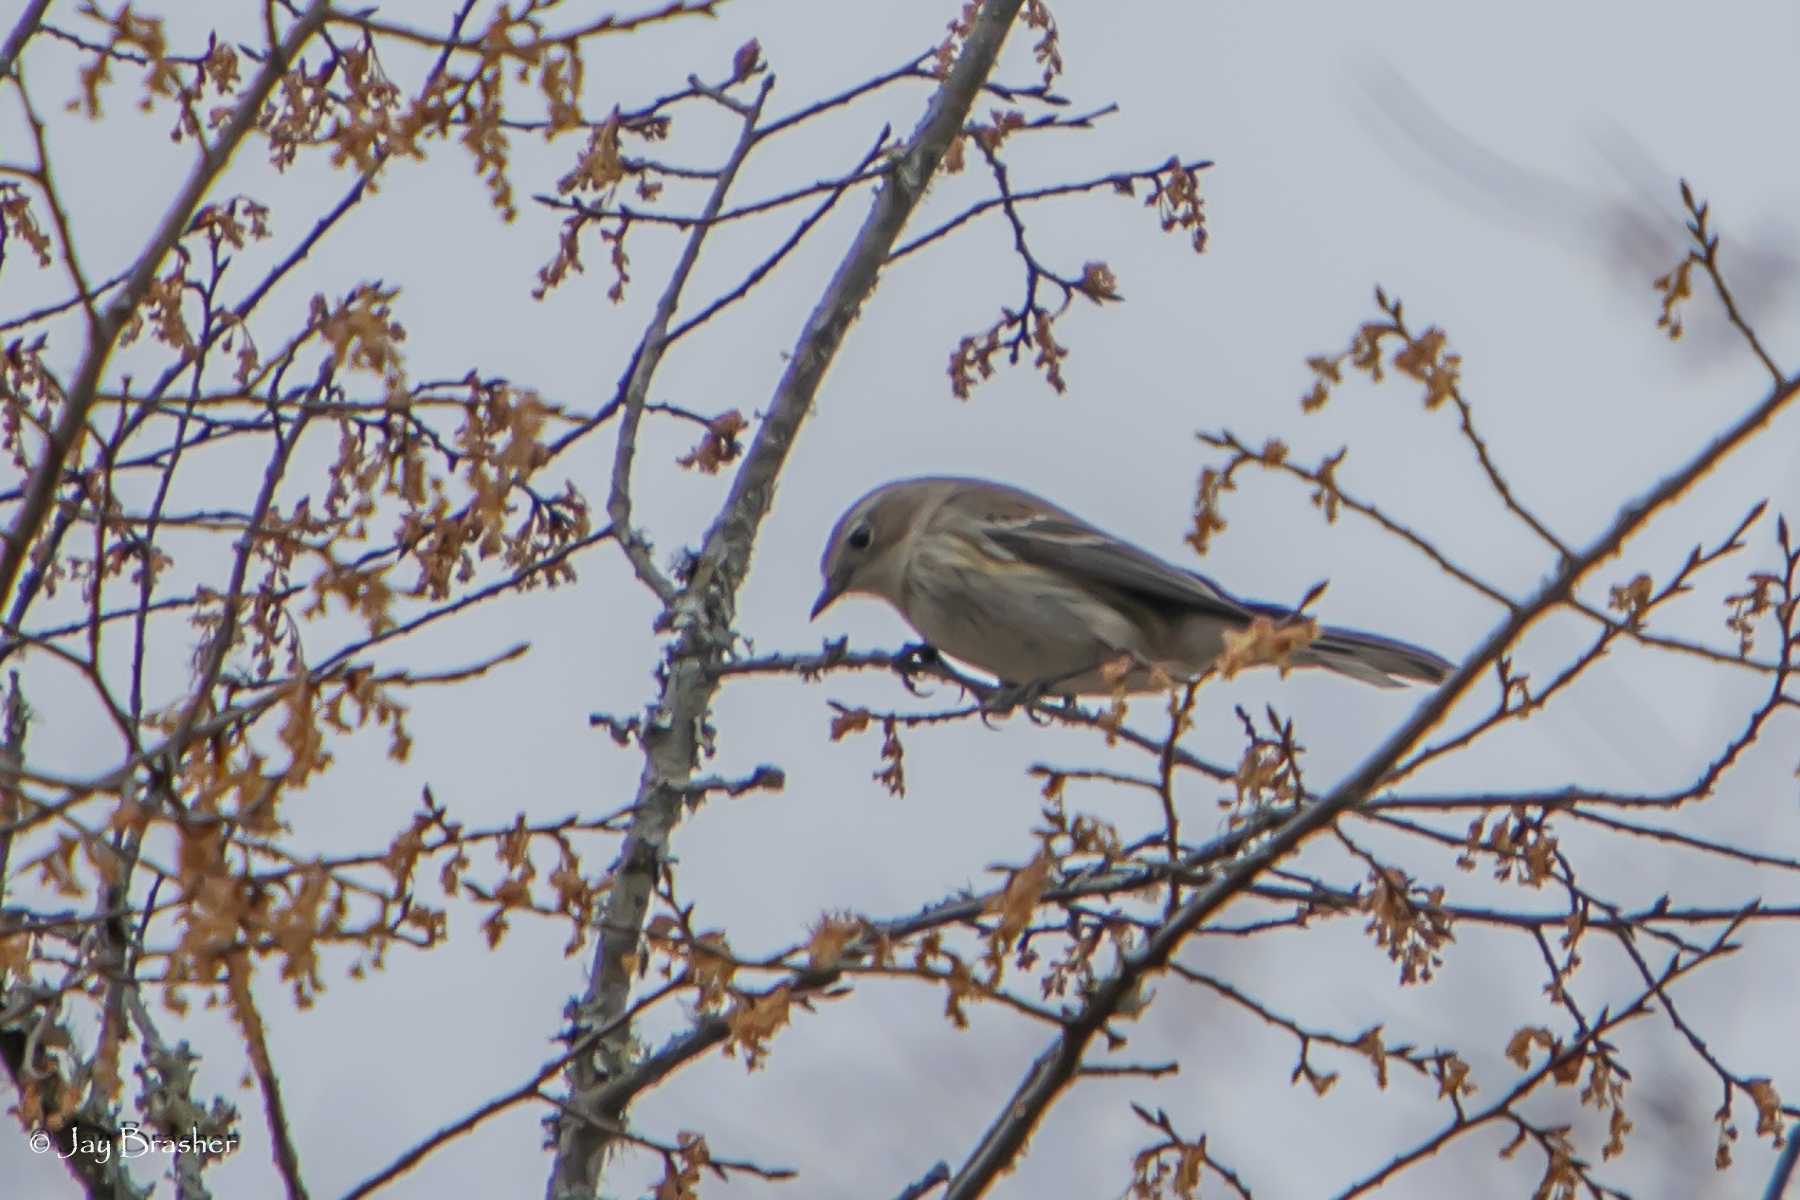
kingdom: Animalia
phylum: Chordata
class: Aves
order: Passeriformes
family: Parulidae
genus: Setophaga
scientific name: Setophaga coronata
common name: Myrtle warbler
